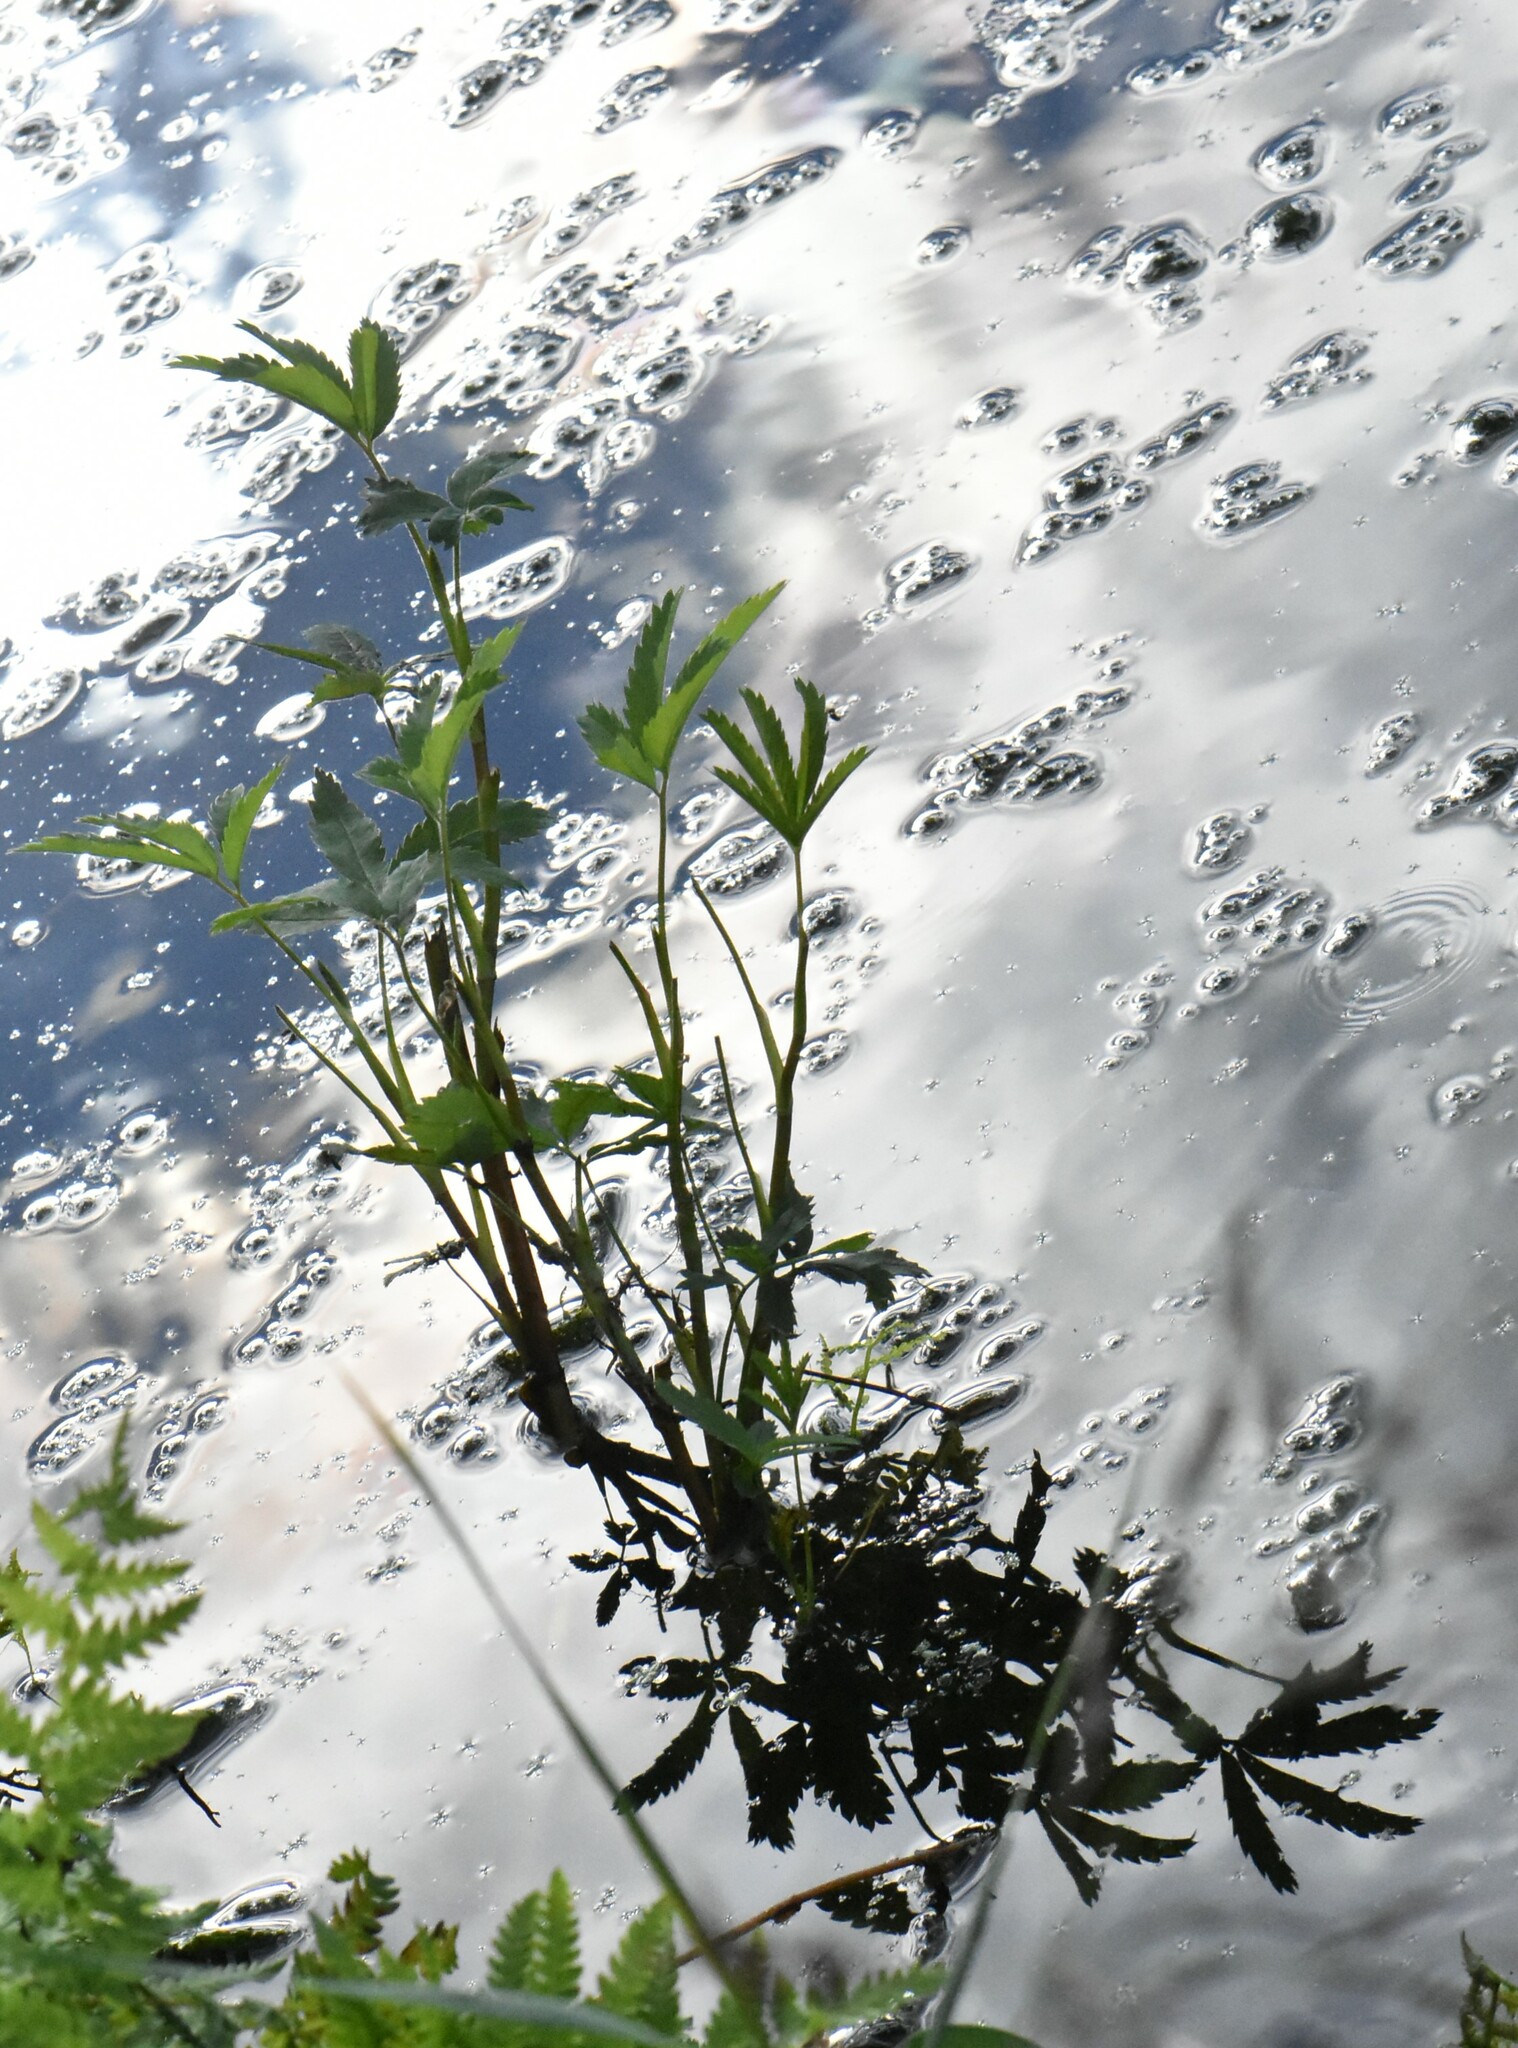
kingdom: Plantae
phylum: Tracheophyta
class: Magnoliopsida
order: Rosales
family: Rosaceae
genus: Comarum
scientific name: Comarum palustre
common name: Marsh cinquefoil
